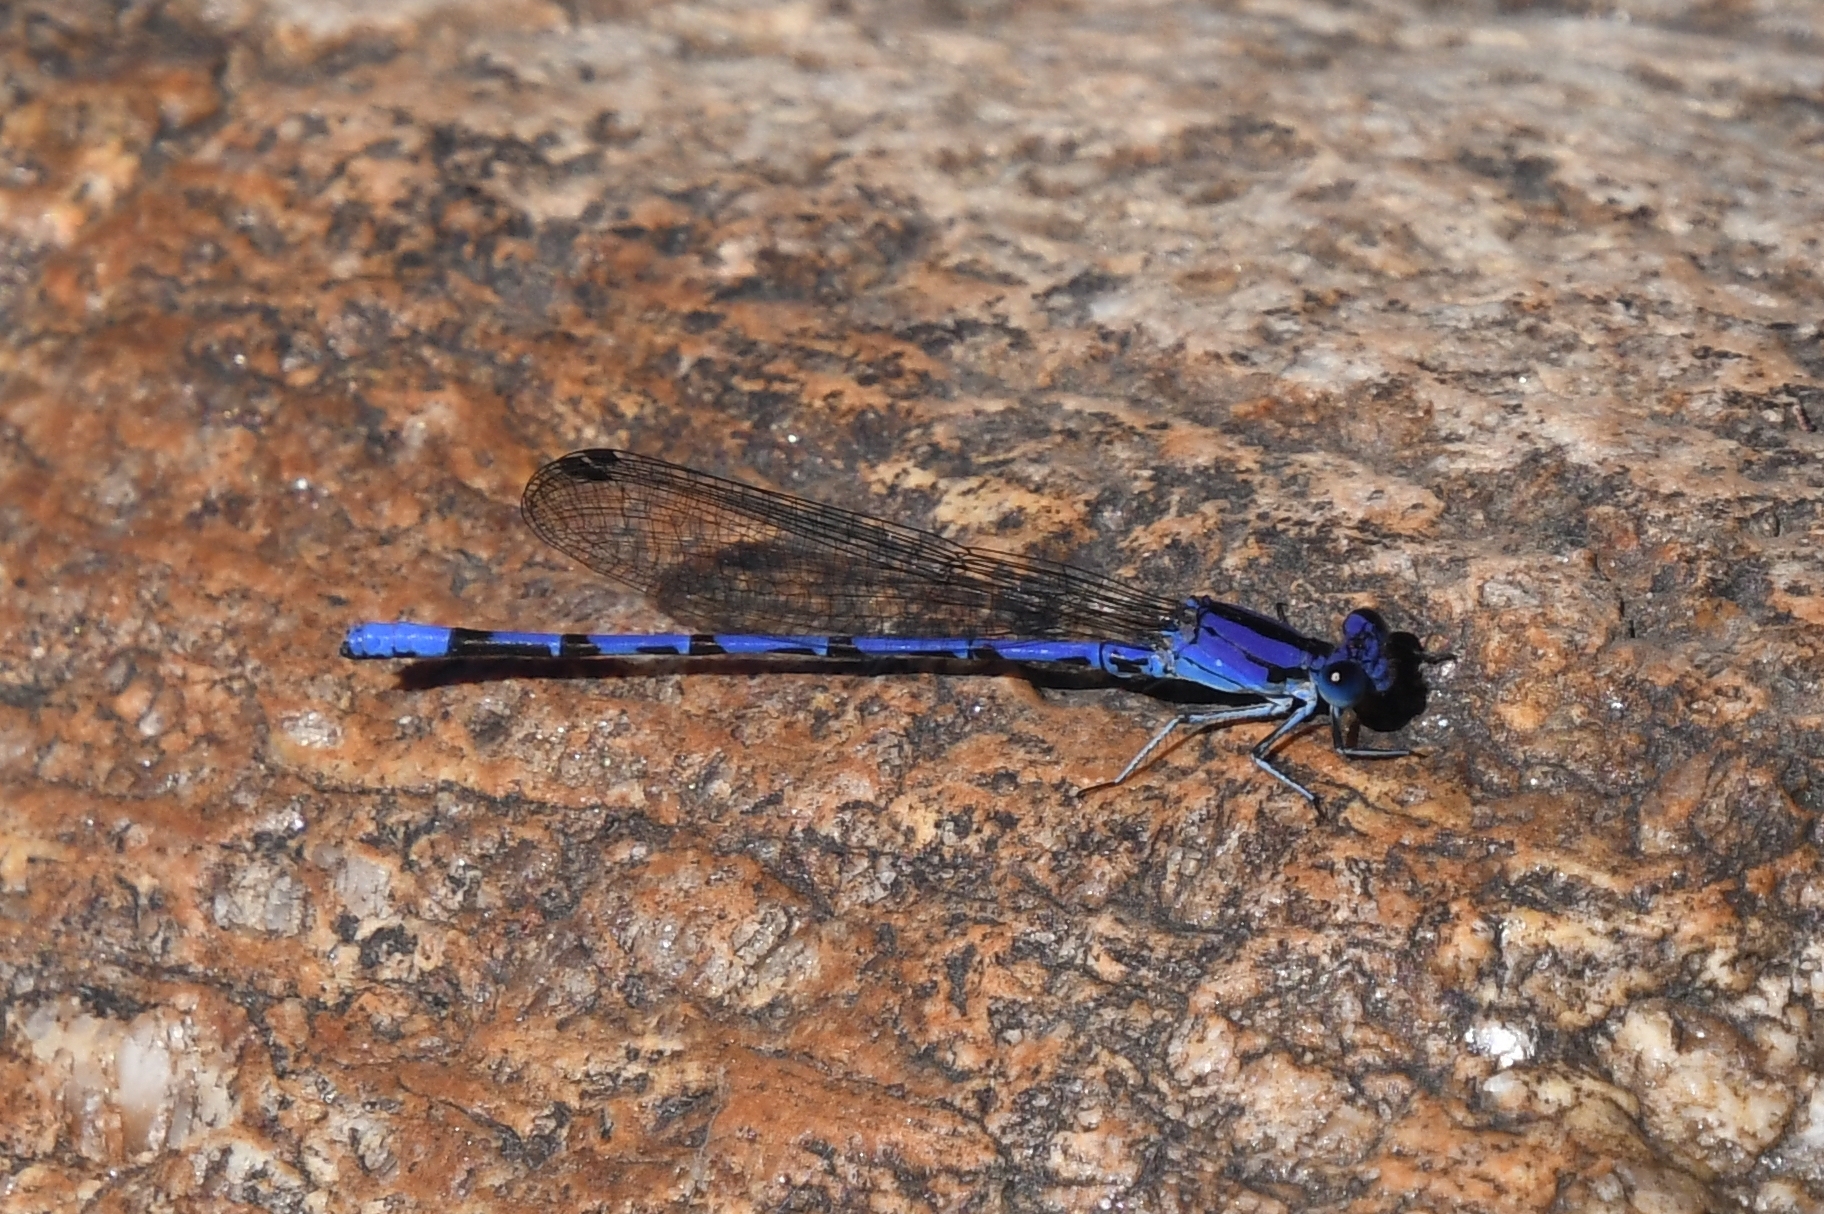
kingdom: Animalia
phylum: Arthropoda
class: Insecta
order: Odonata
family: Coenagrionidae
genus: Argia
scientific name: Argia extranea
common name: Spine-tipped dancer
